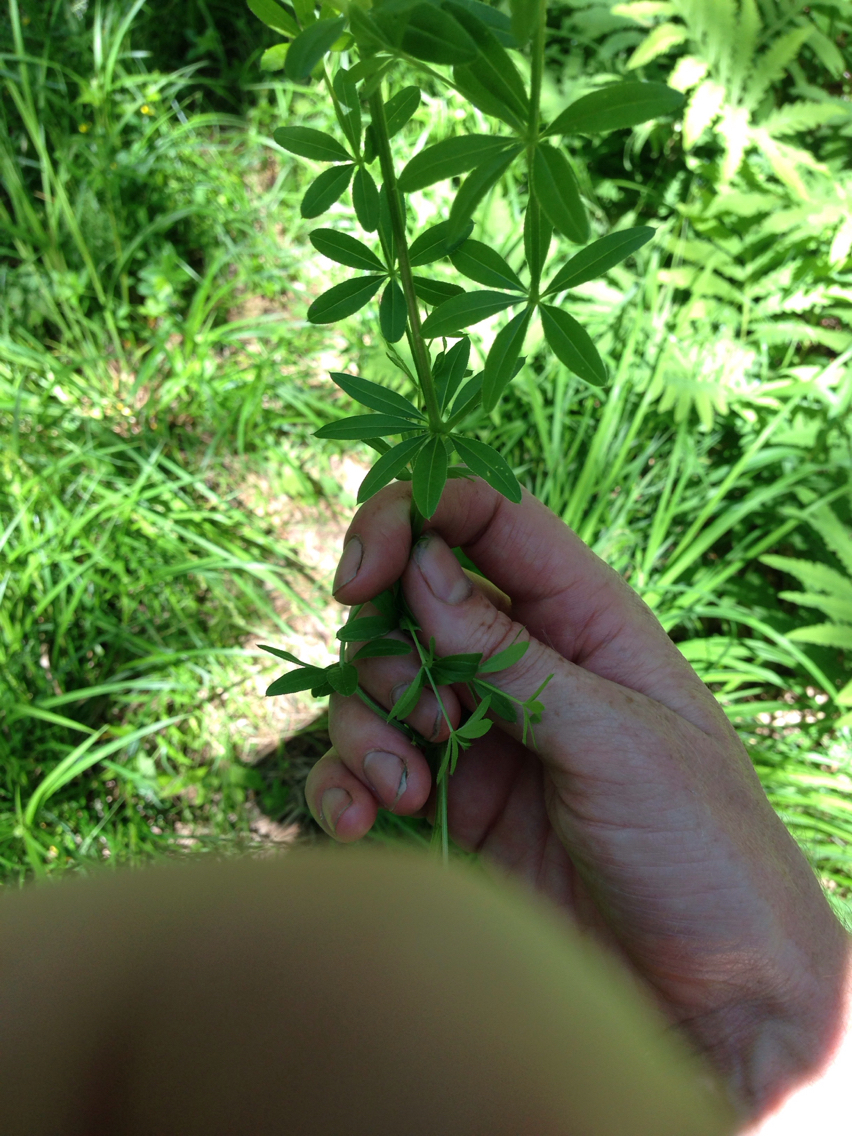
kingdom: Plantae
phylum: Tracheophyta
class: Magnoliopsida
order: Gentianales
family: Rubiaceae
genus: Galium
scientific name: Galium asprellum
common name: Rough bedstraw
